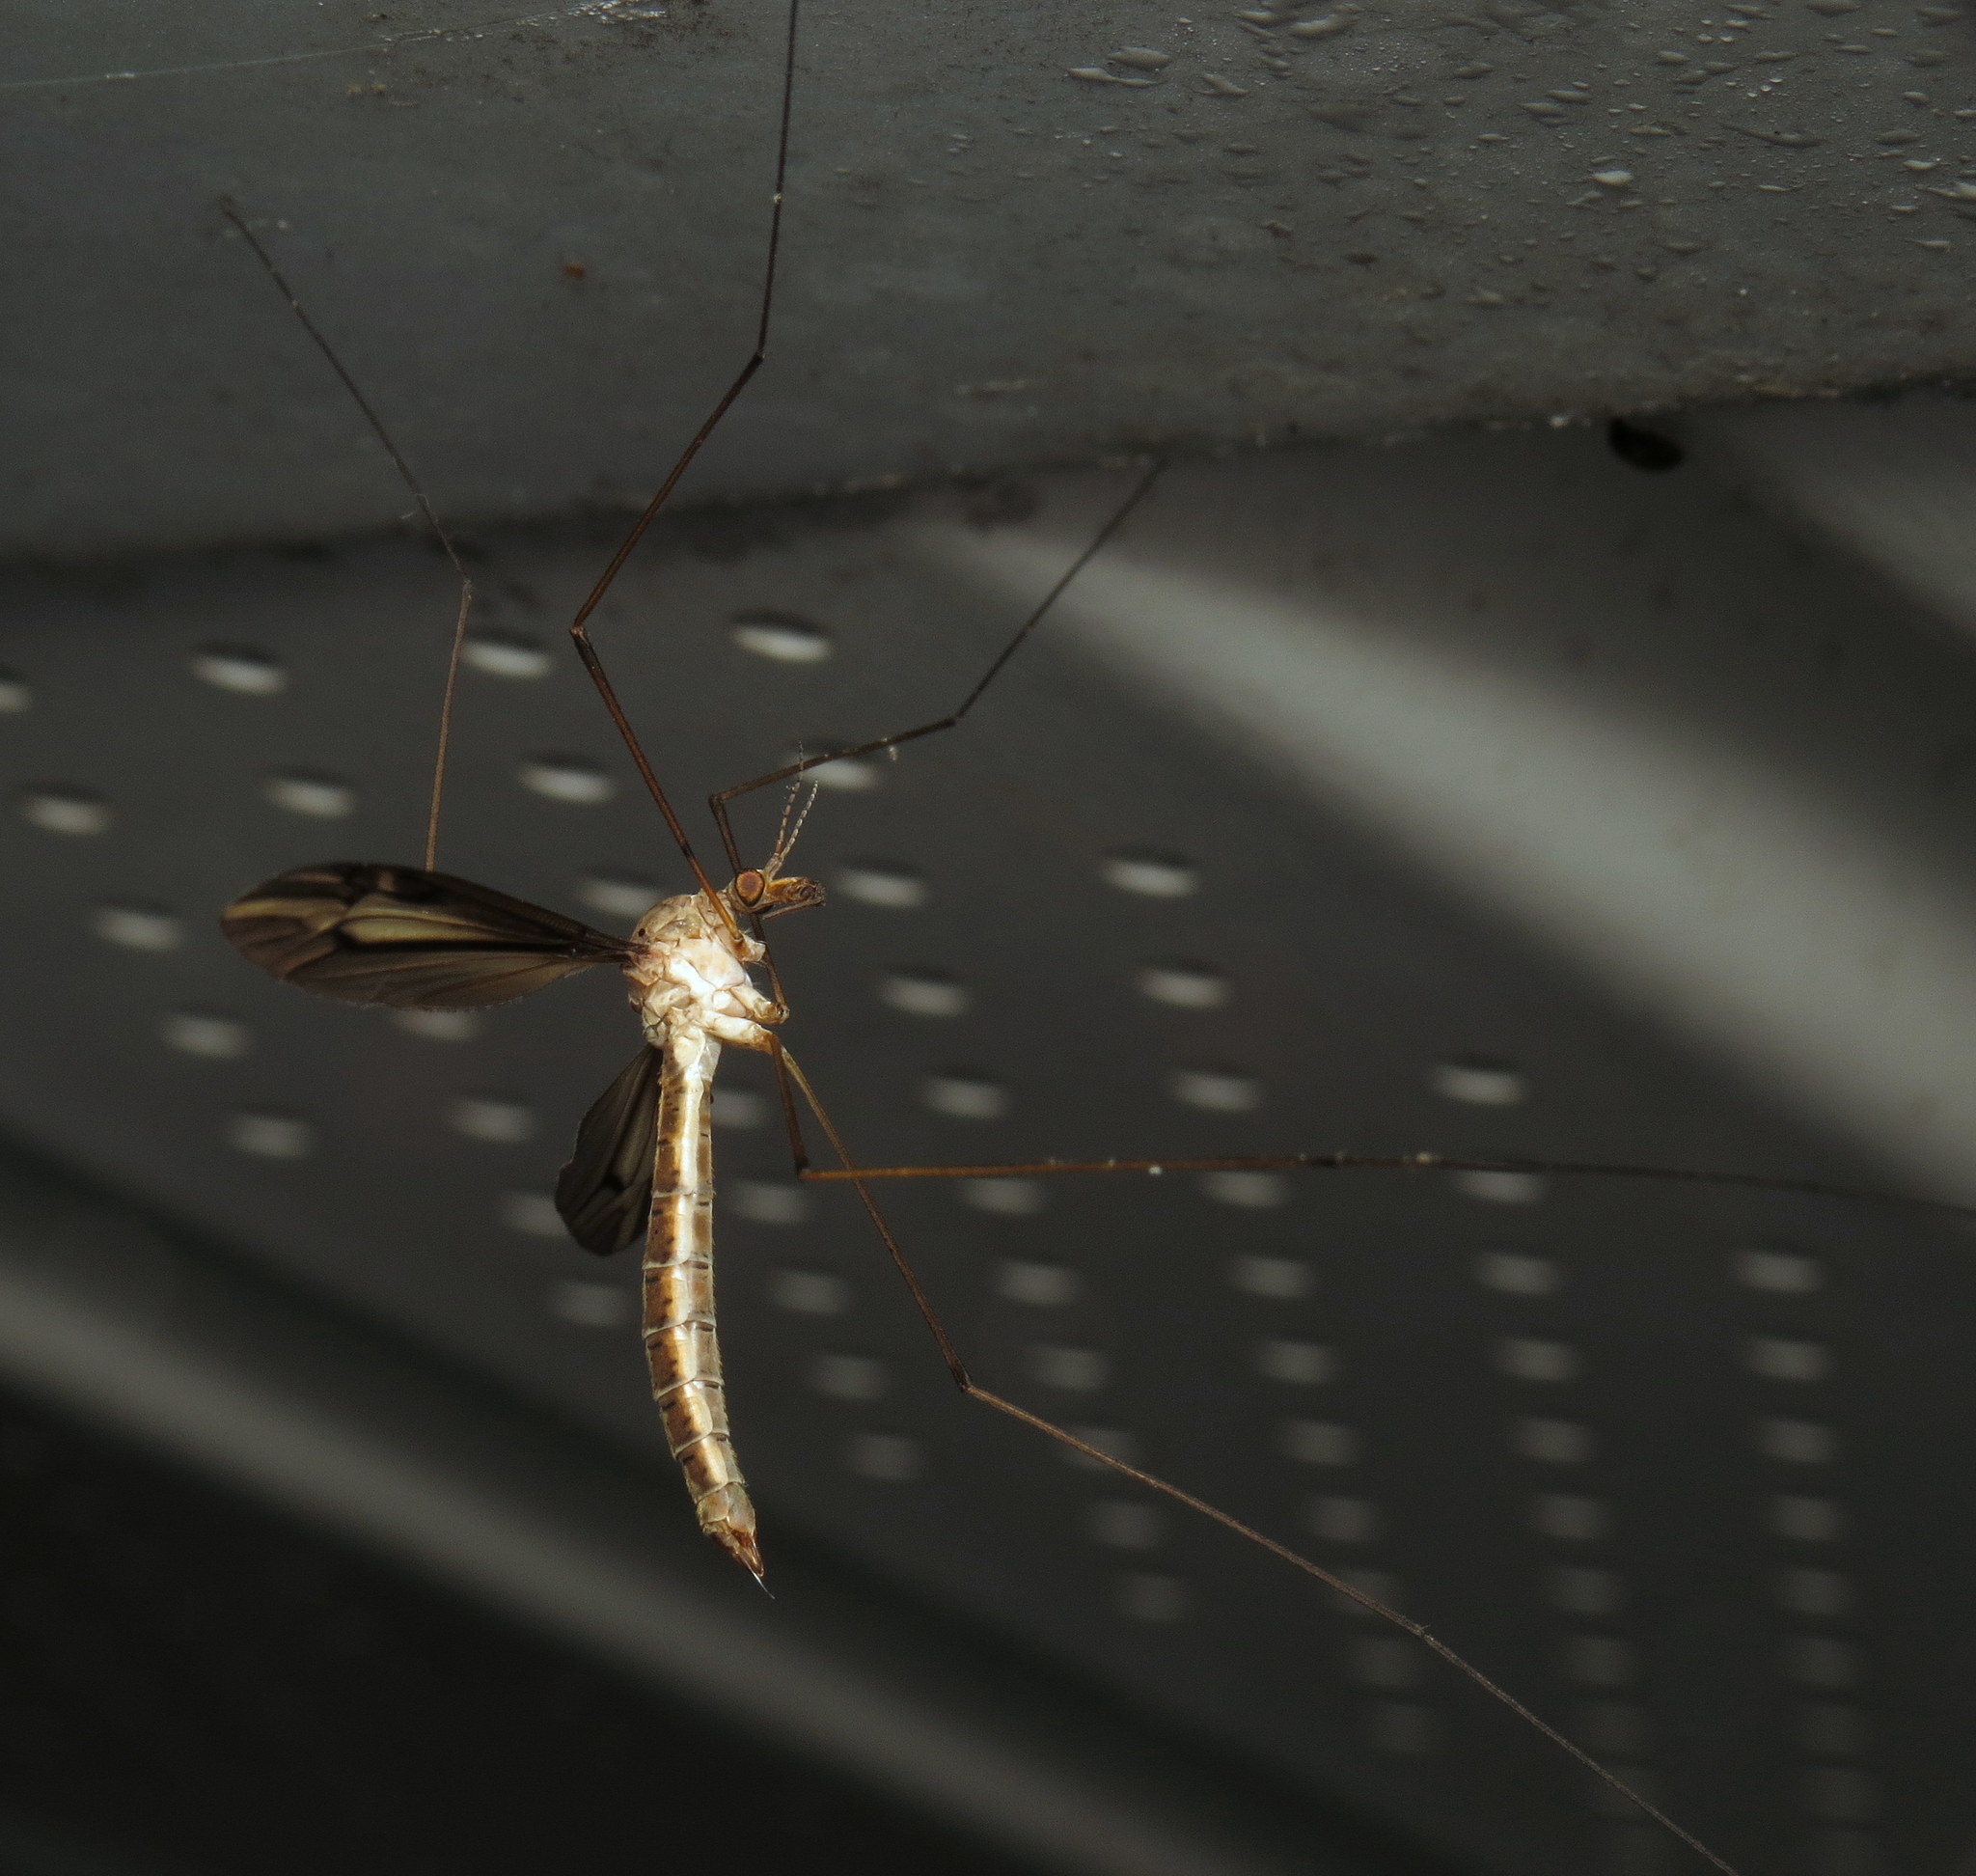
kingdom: Animalia
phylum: Arthropoda
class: Insecta
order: Diptera
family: Tipulidae
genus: Tipula
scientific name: Tipula furca
